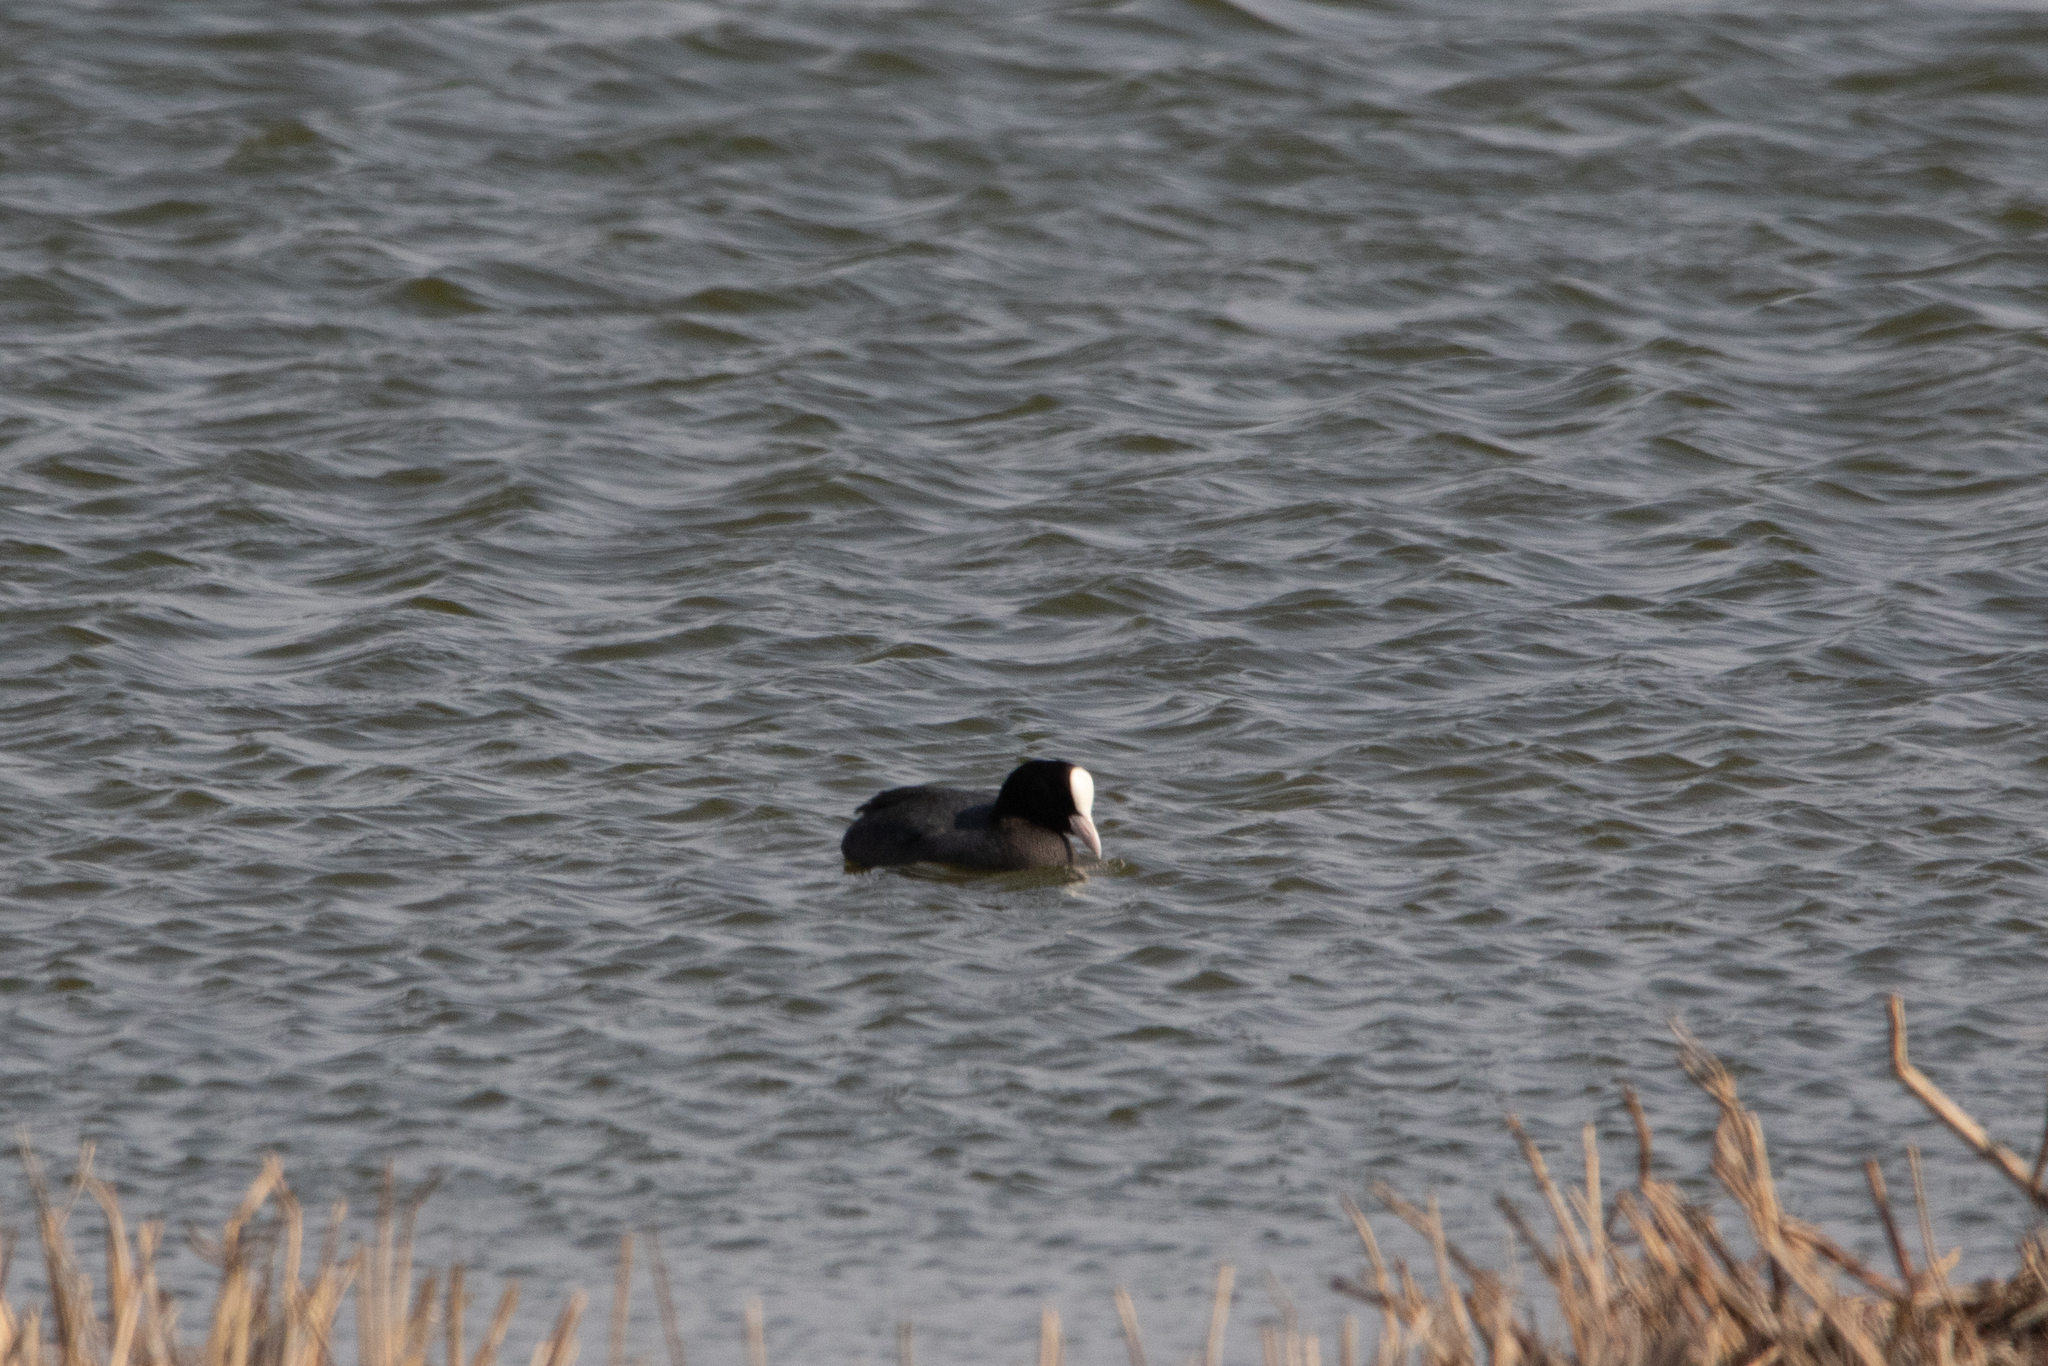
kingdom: Animalia
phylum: Chordata
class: Aves
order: Gruiformes
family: Rallidae
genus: Fulica
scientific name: Fulica atra
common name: Eurasian coot
